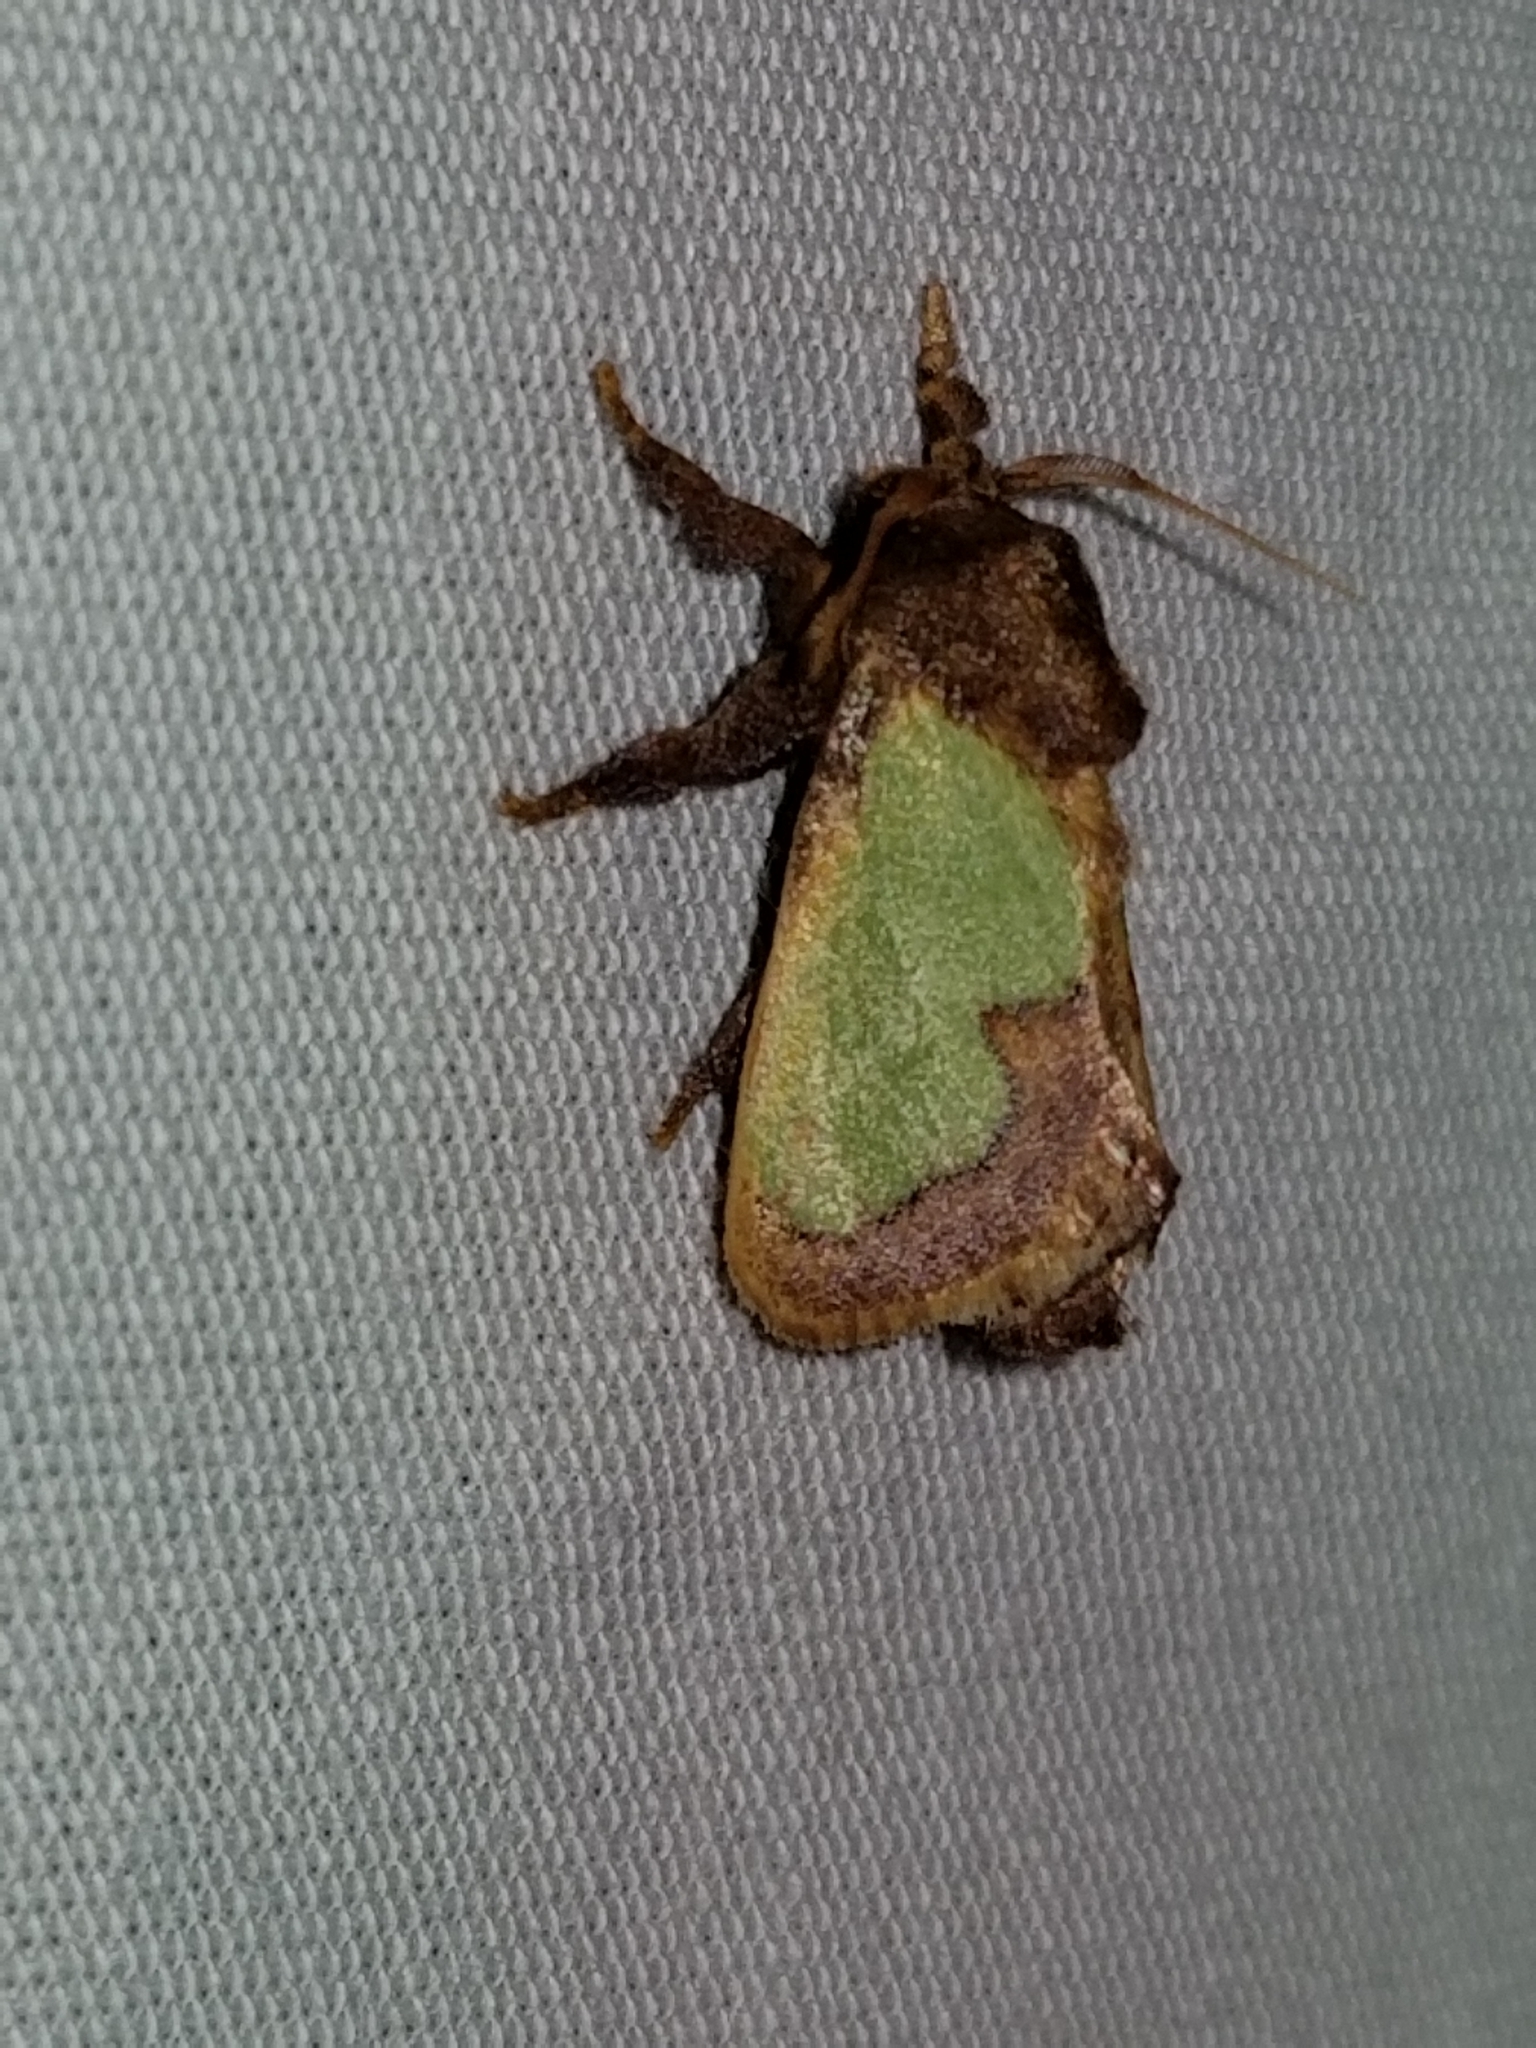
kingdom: Animalia
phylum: Arthropoda
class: Insecta
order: Lepidoptera
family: Limacodidae
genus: Euclea
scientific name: Euclea incisa
